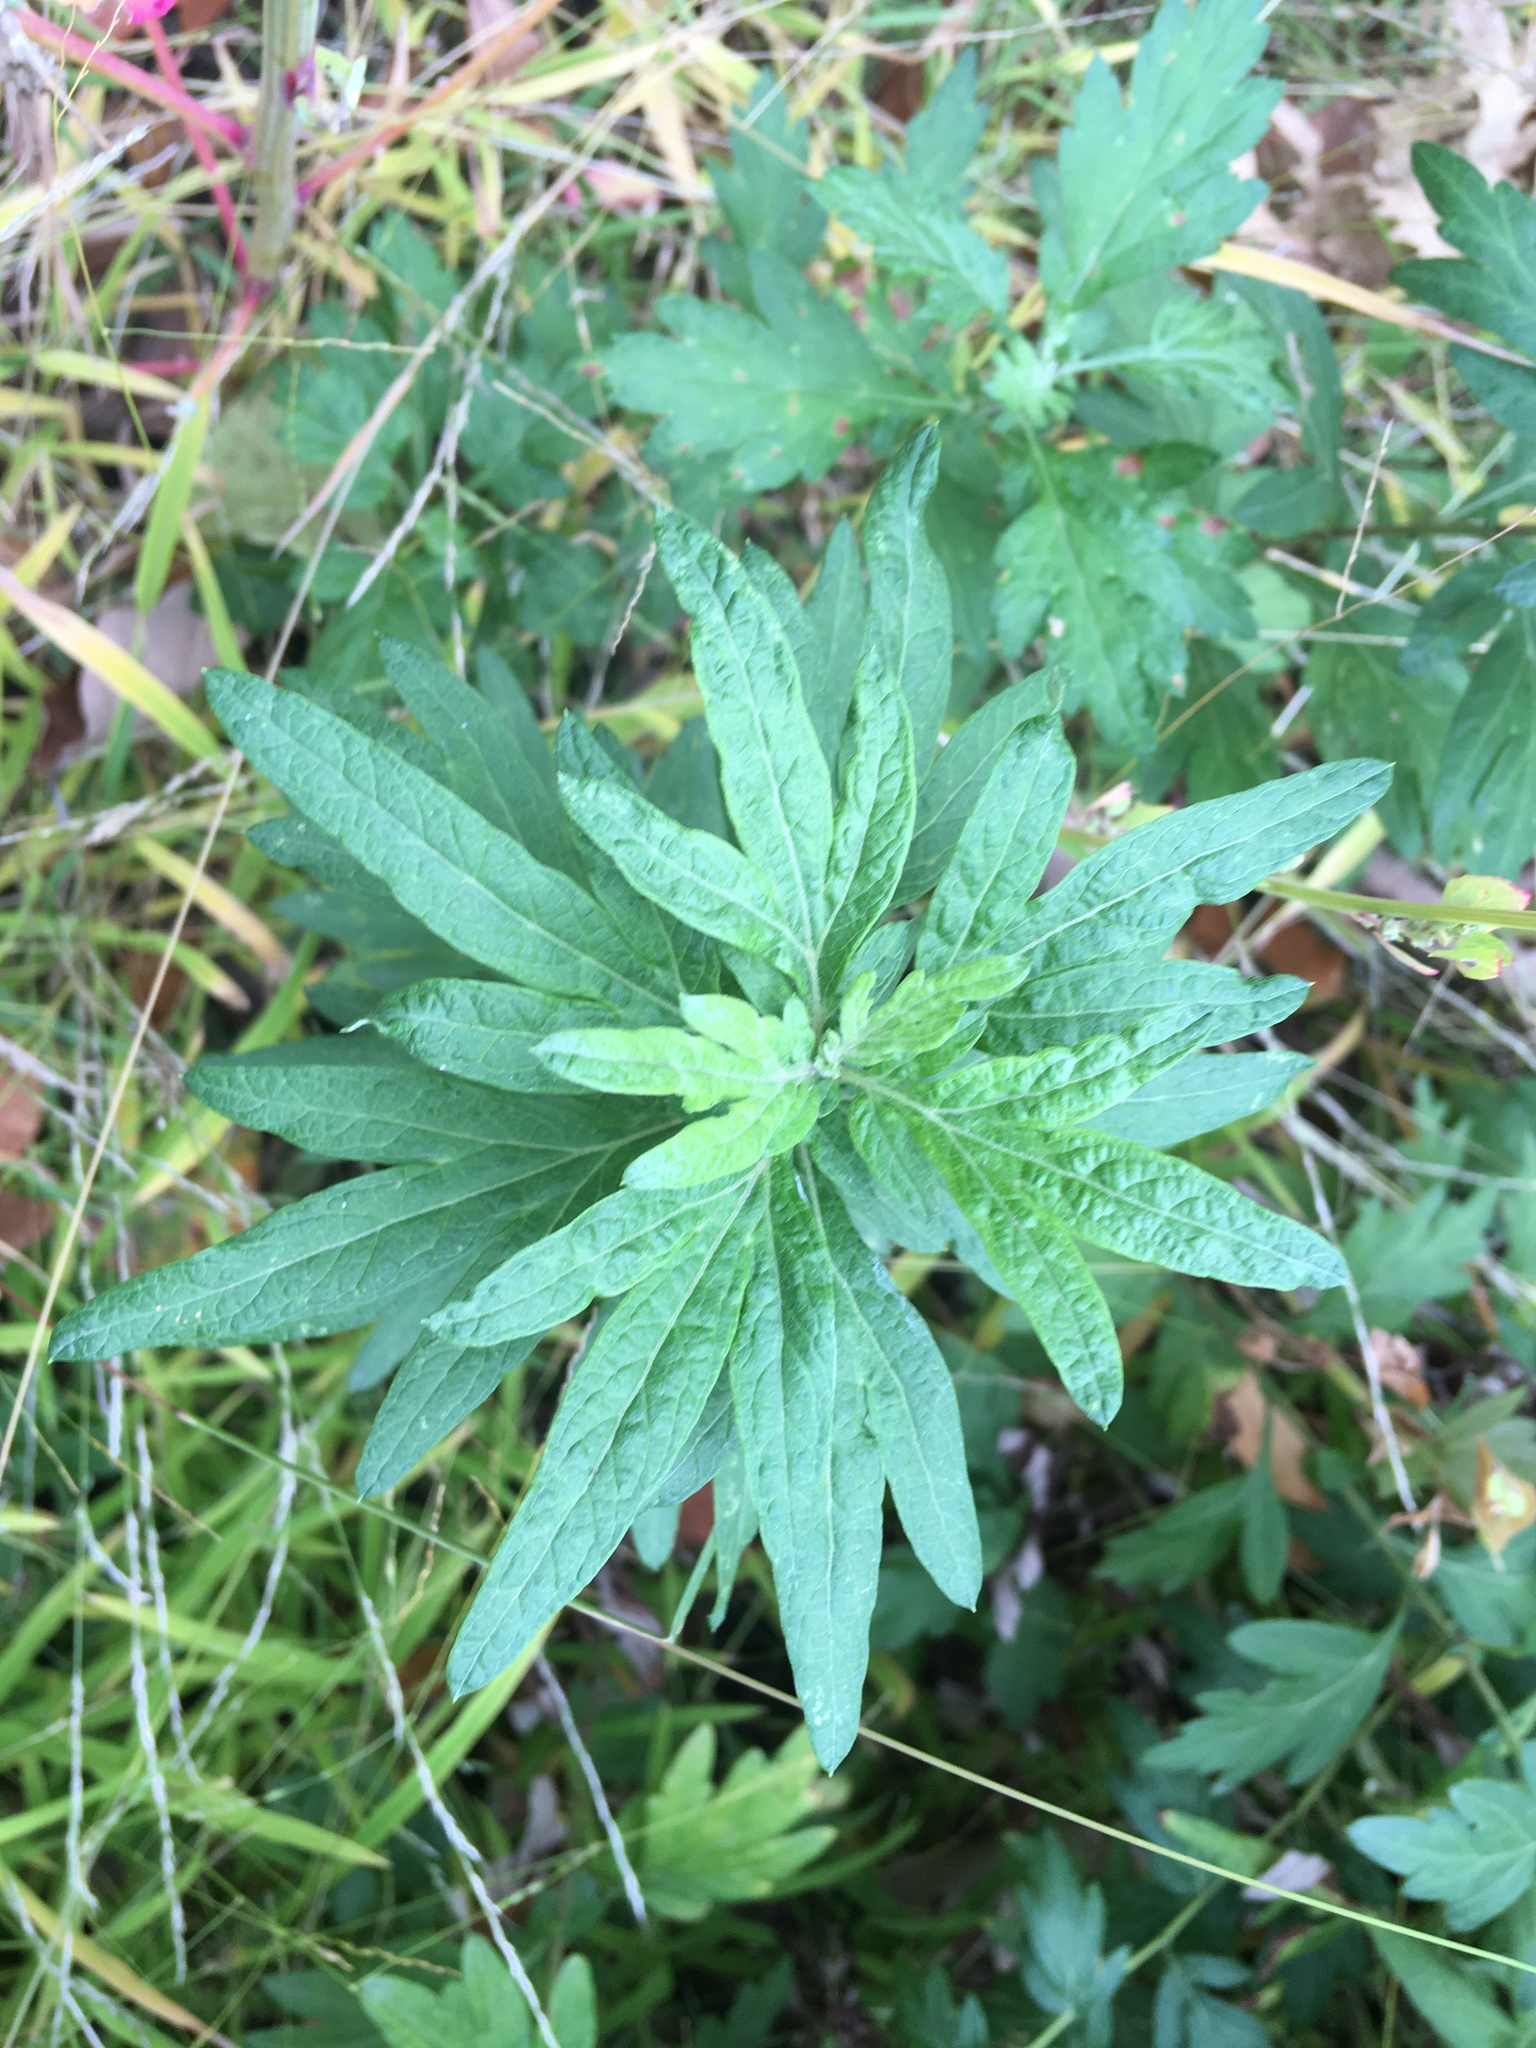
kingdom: Plantae
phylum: Tracheophyta
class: Magnoliopsida
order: Asterales
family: Asteraceae
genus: Artemisia
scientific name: Artemisia vulgaris
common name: Mugwort
